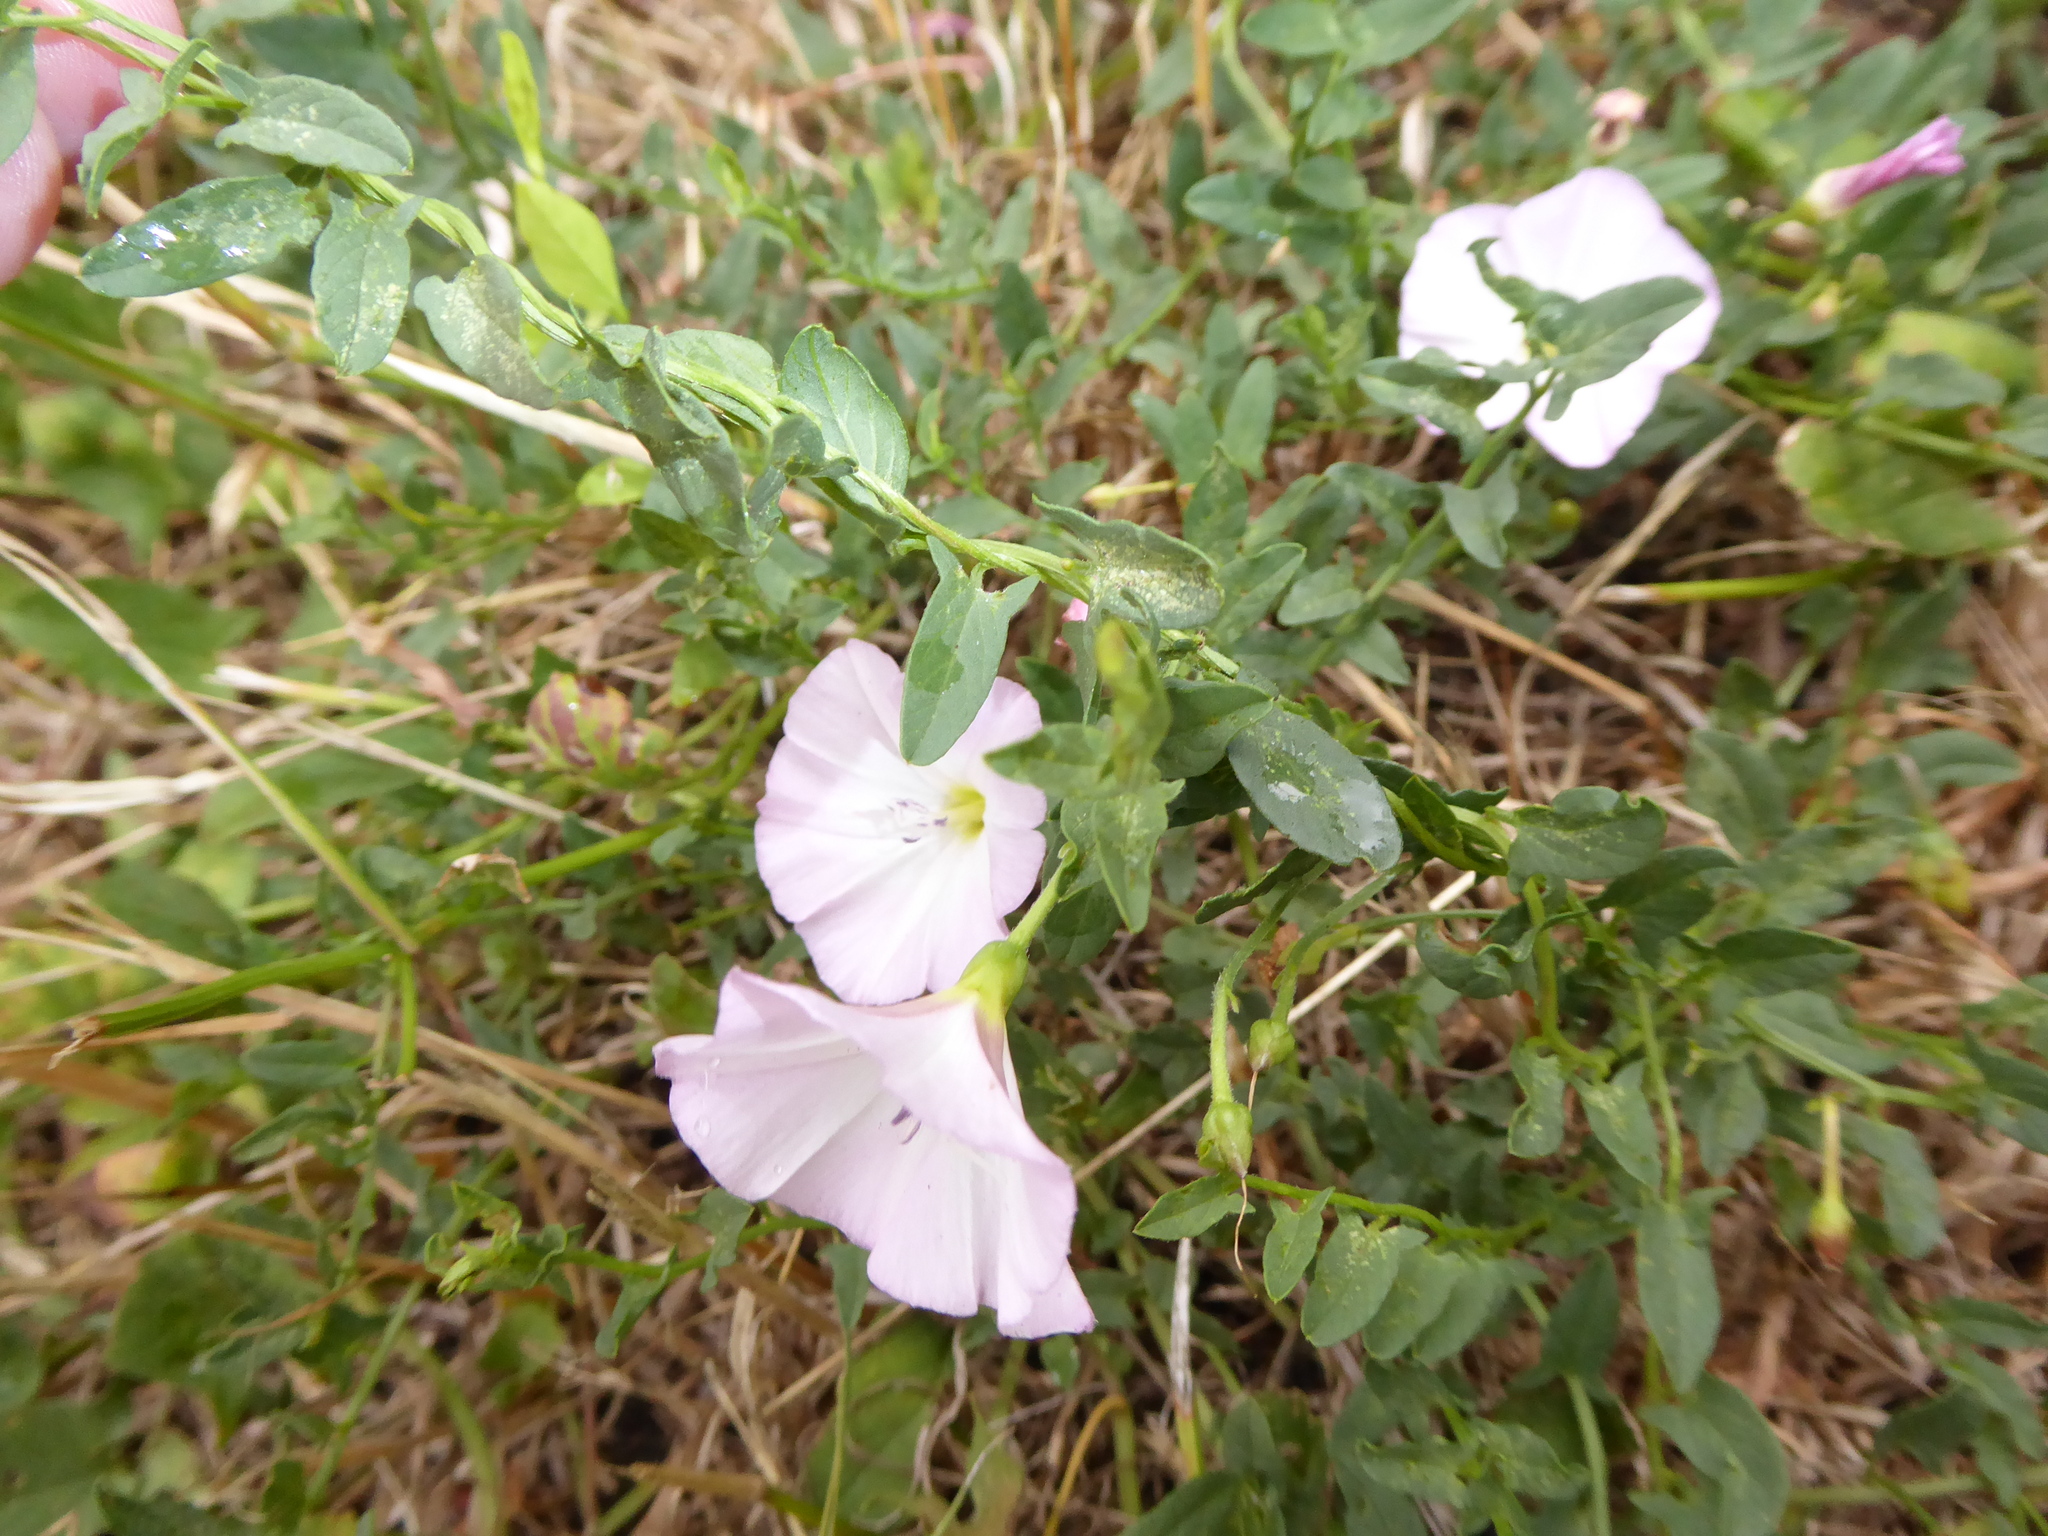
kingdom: Plantae
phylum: Tracheophyta
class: Magnoliopsida
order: Solanales
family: Convolvulaceae
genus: Convolvulus
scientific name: Convolvulus arvensis
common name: Field bindweed
